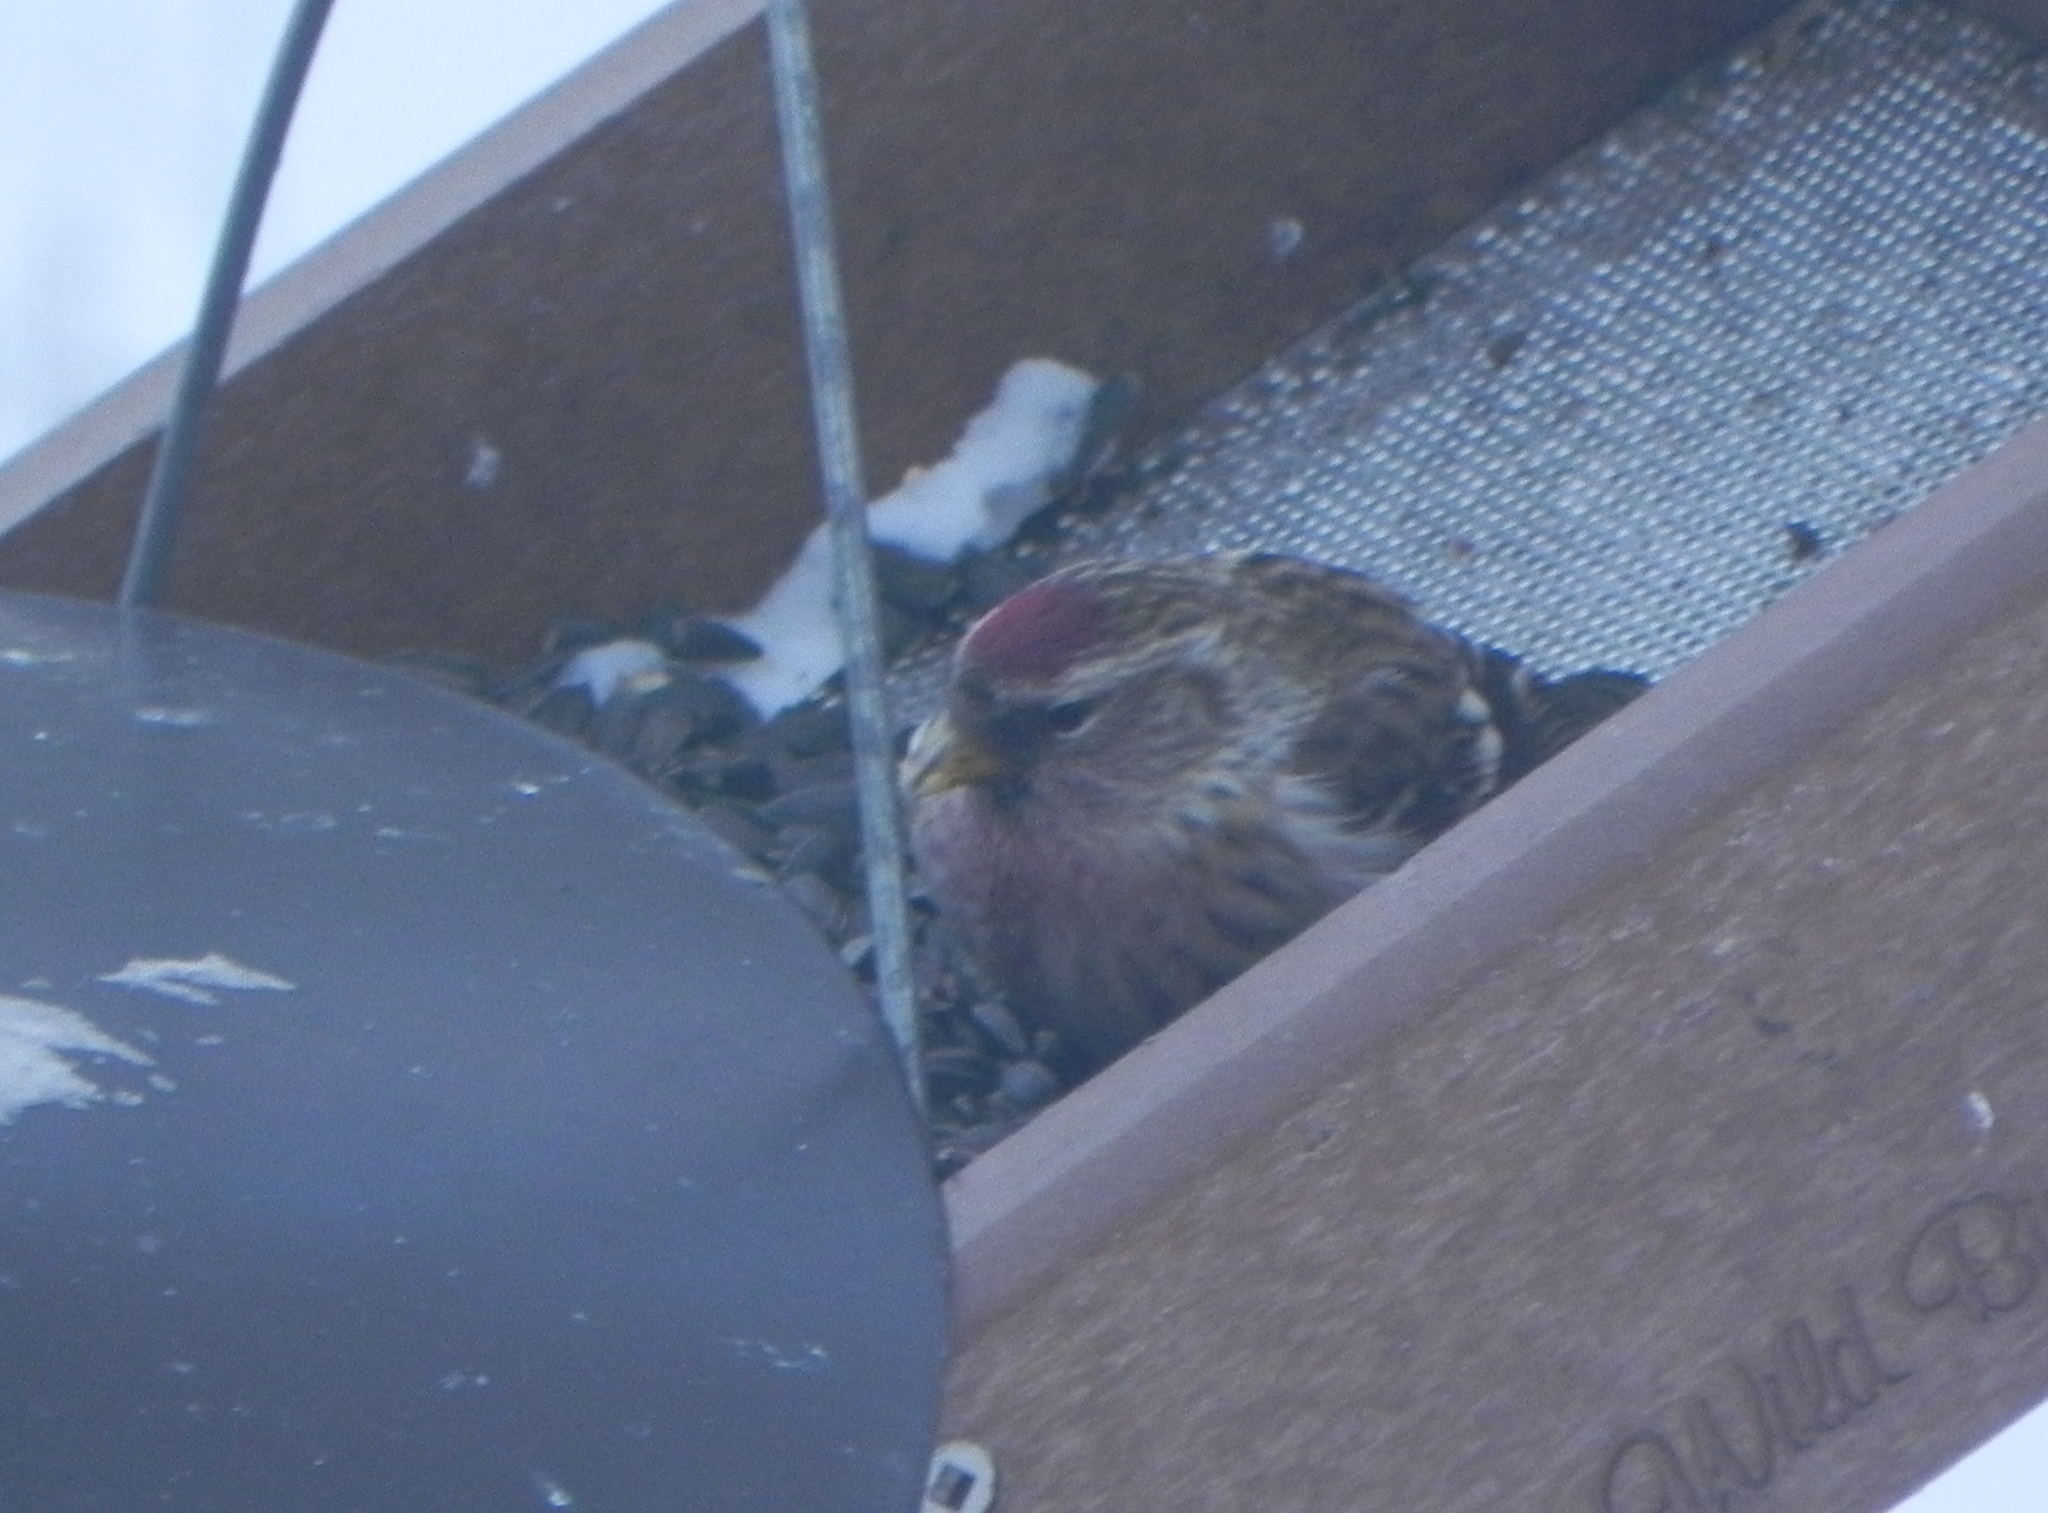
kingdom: Animalia
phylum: Chordata
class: Aves
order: Passeriformes
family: Fringillidae
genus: Acanthis
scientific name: Acanthis flammea
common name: Common redpoll
